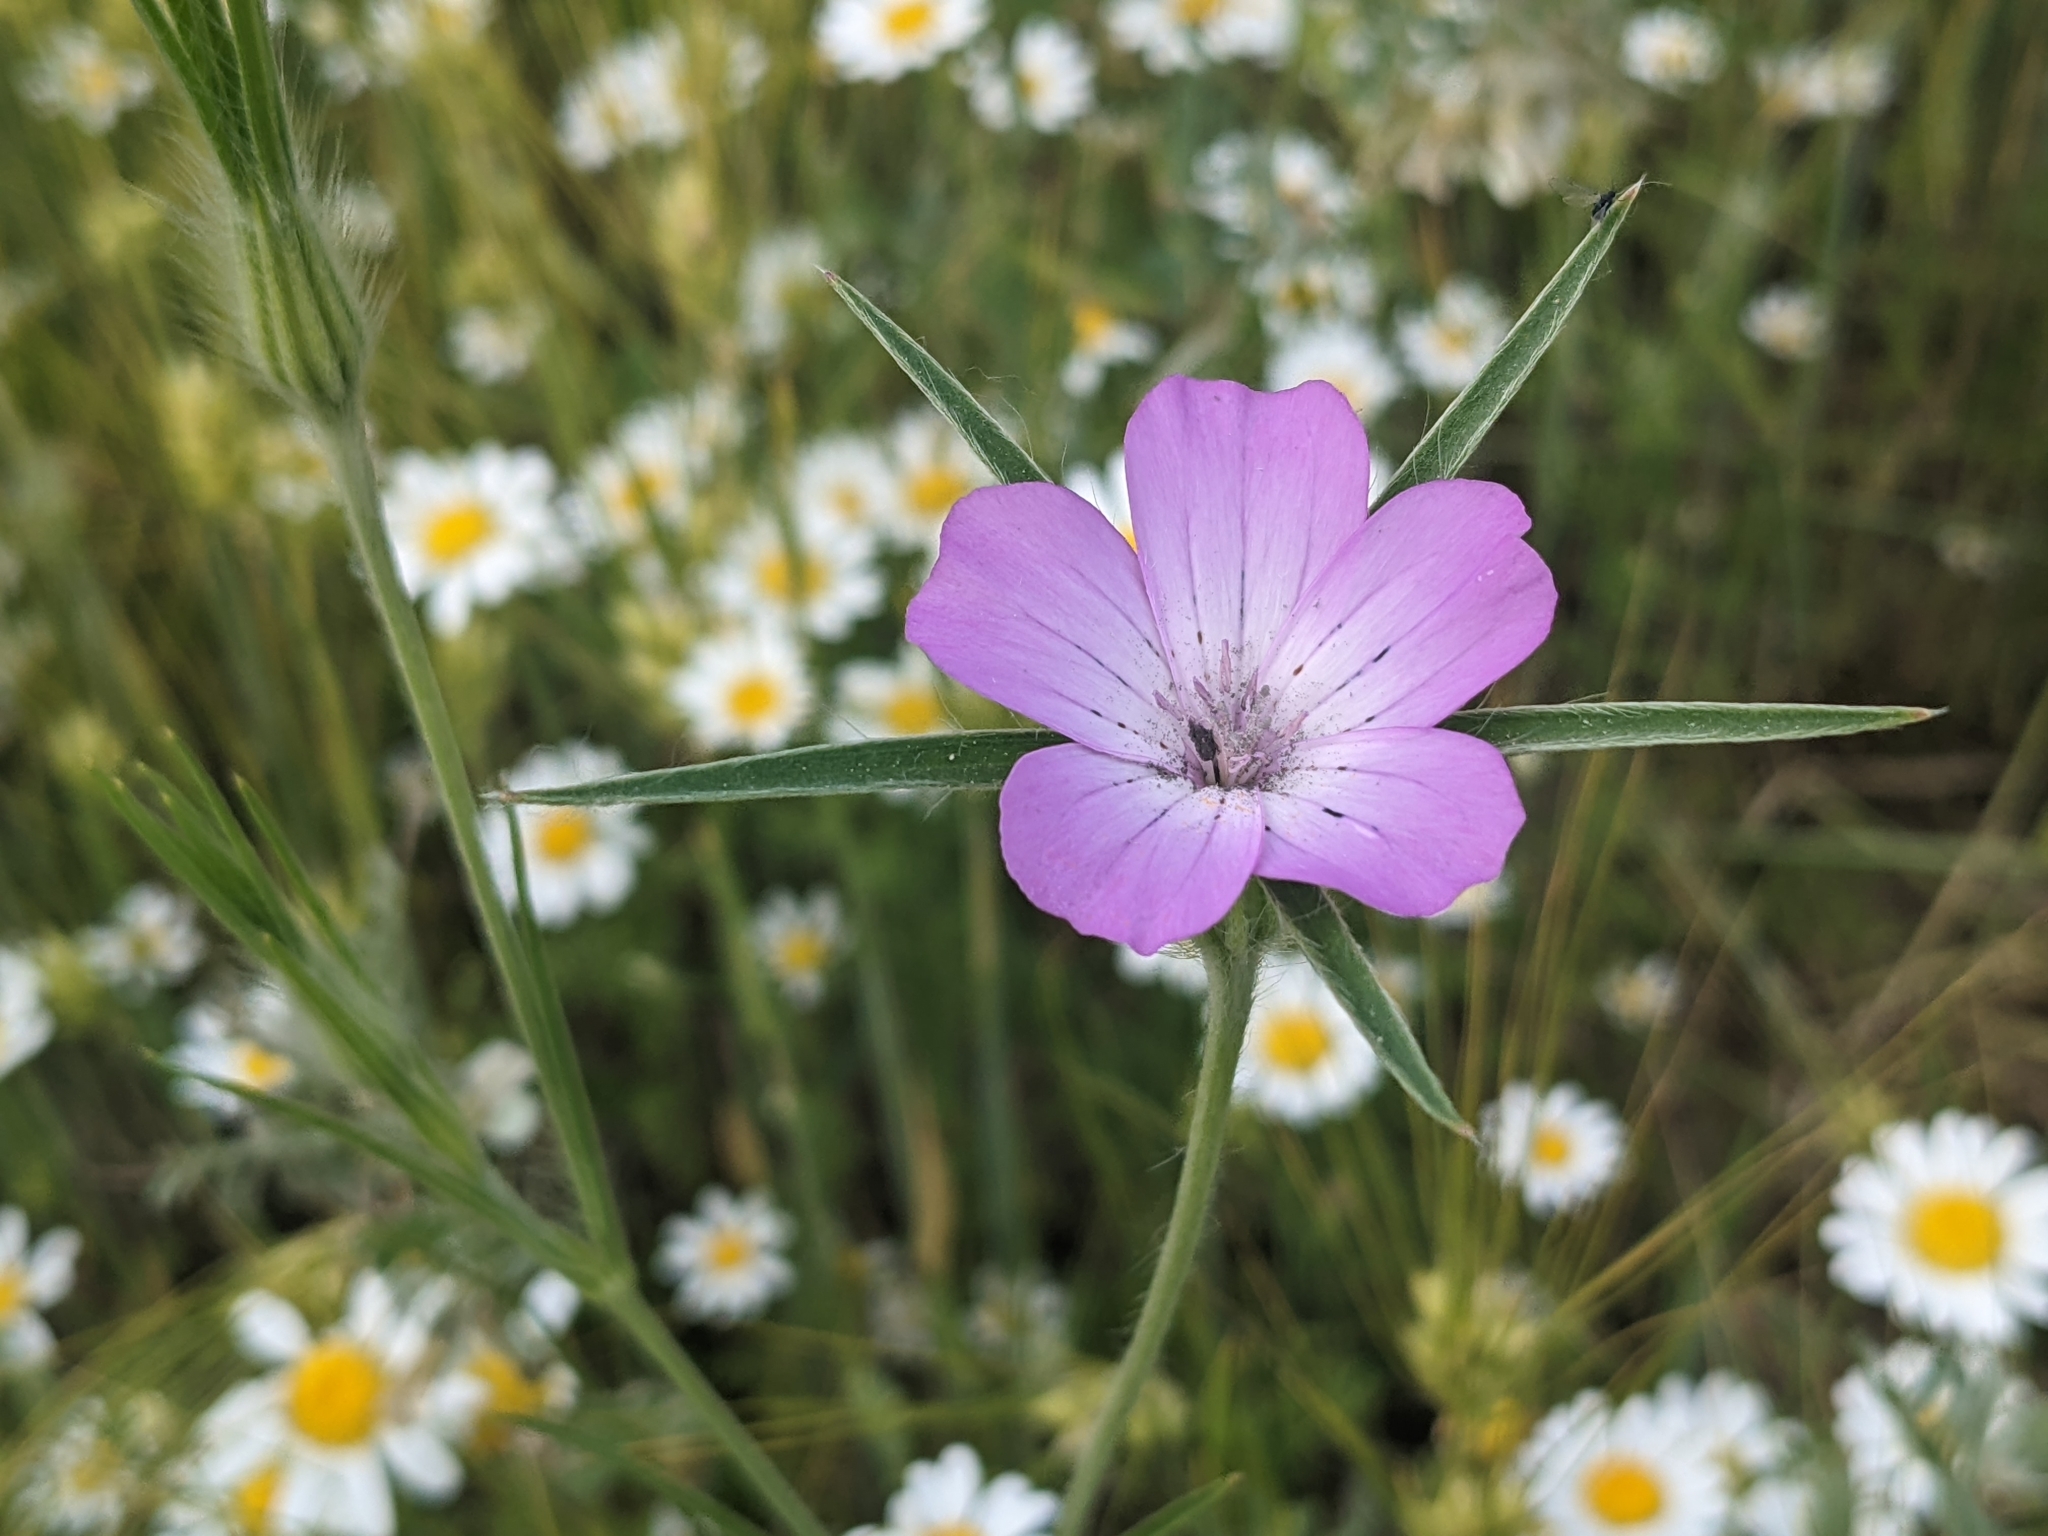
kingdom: Plantae
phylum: Tracheophyta
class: Magnoliopsida
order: Caryophyllales
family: Caryophyllaceae
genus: Agrostemma
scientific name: Agrostemma githago
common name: Common corncockle
